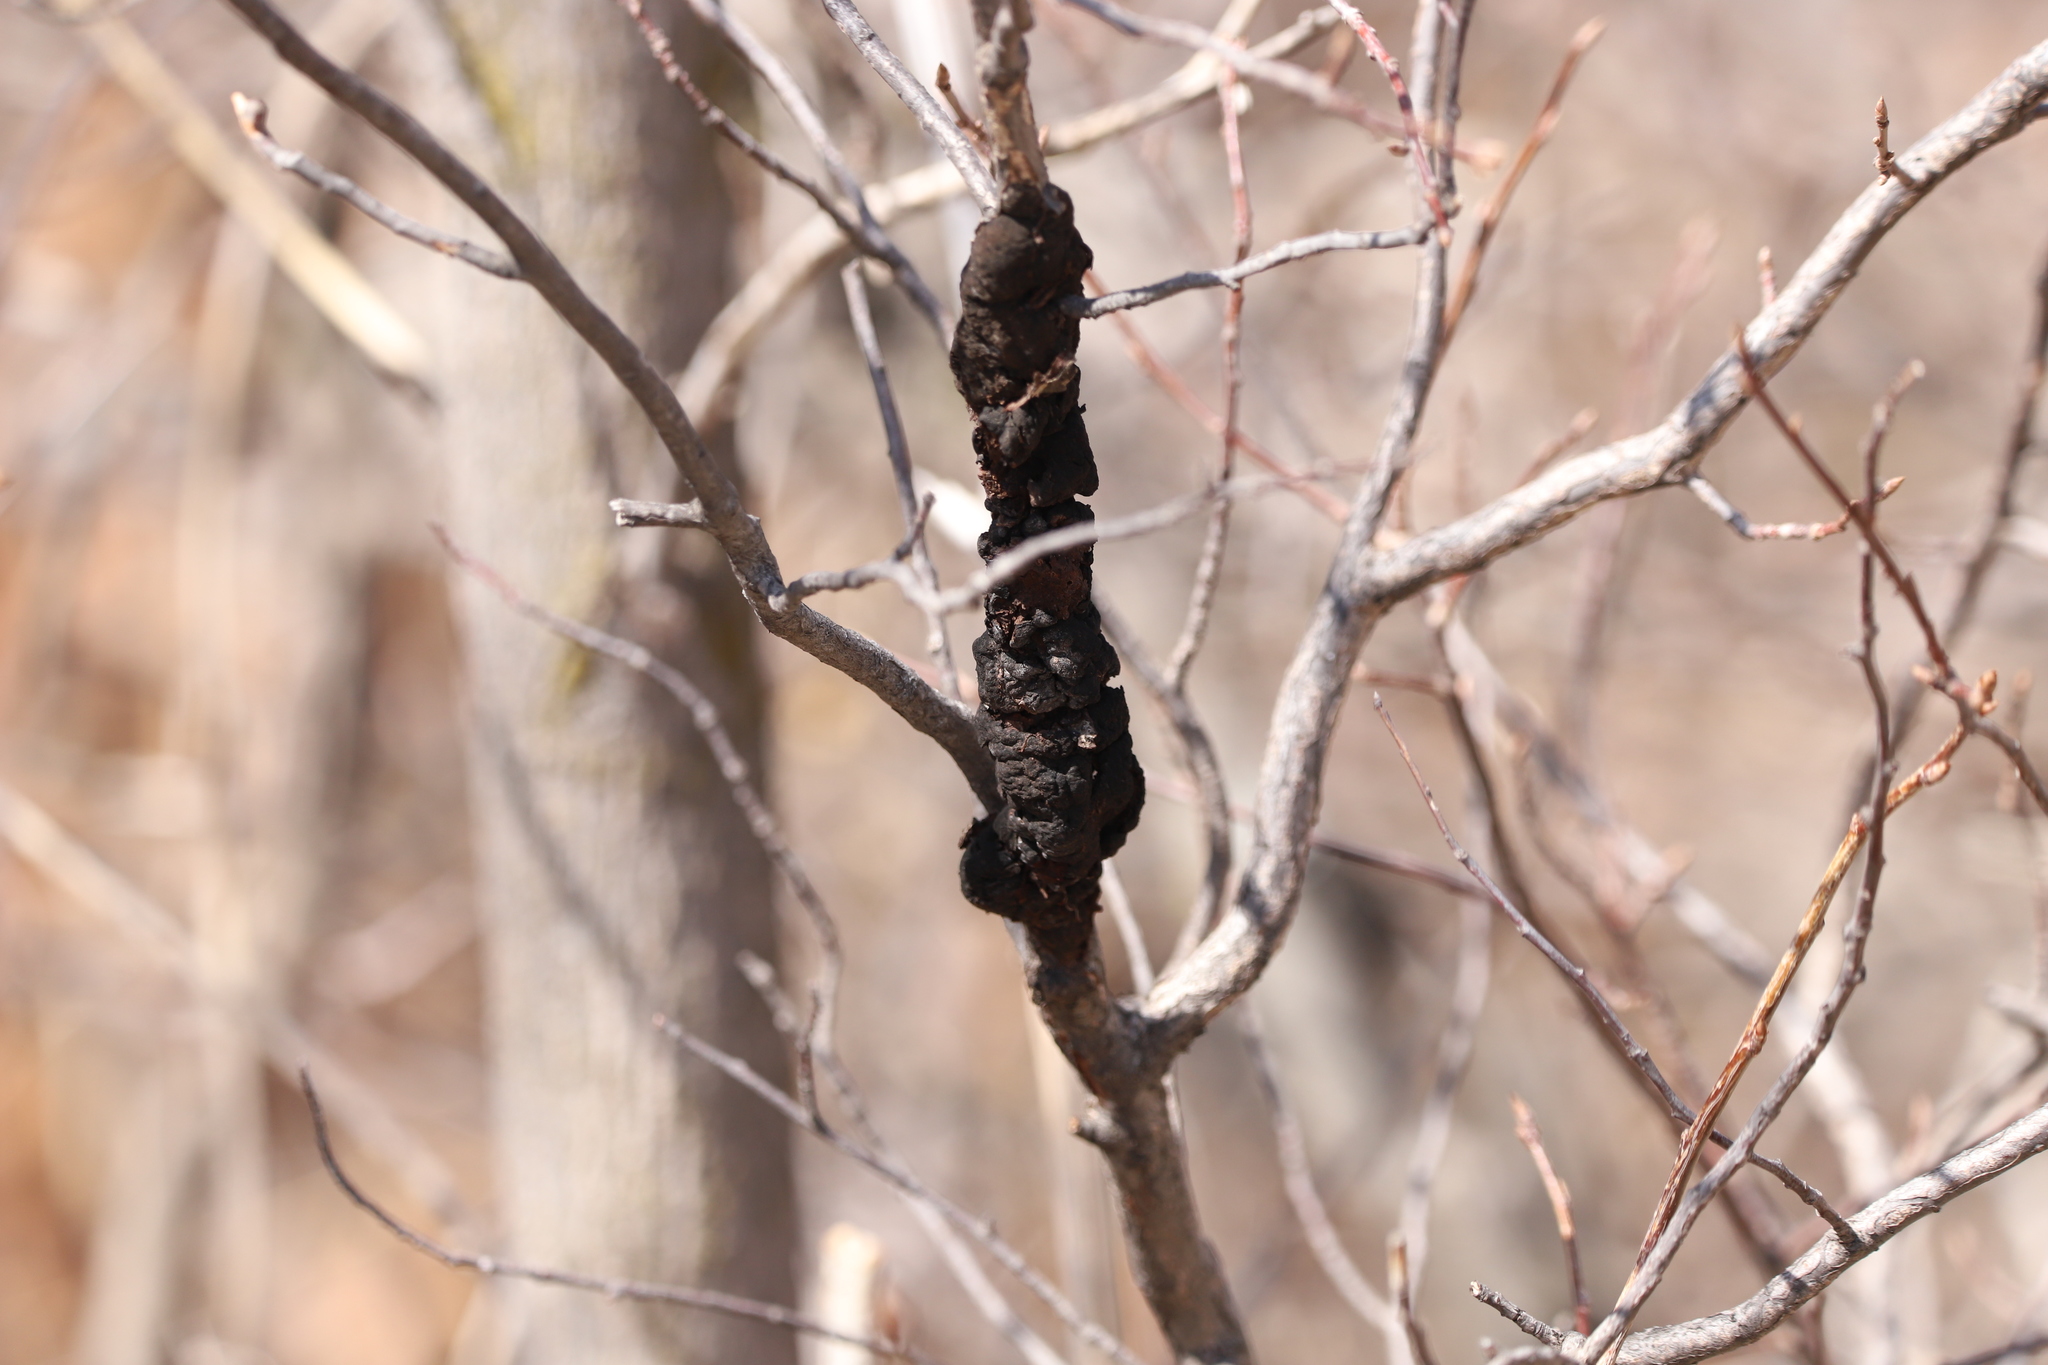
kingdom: Fungi
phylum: Ascomycota
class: Dothideomycetes
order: Venturiales
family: Venturiaceae
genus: Apiosporina
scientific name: Apiosporina morbosa
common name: Black knot
